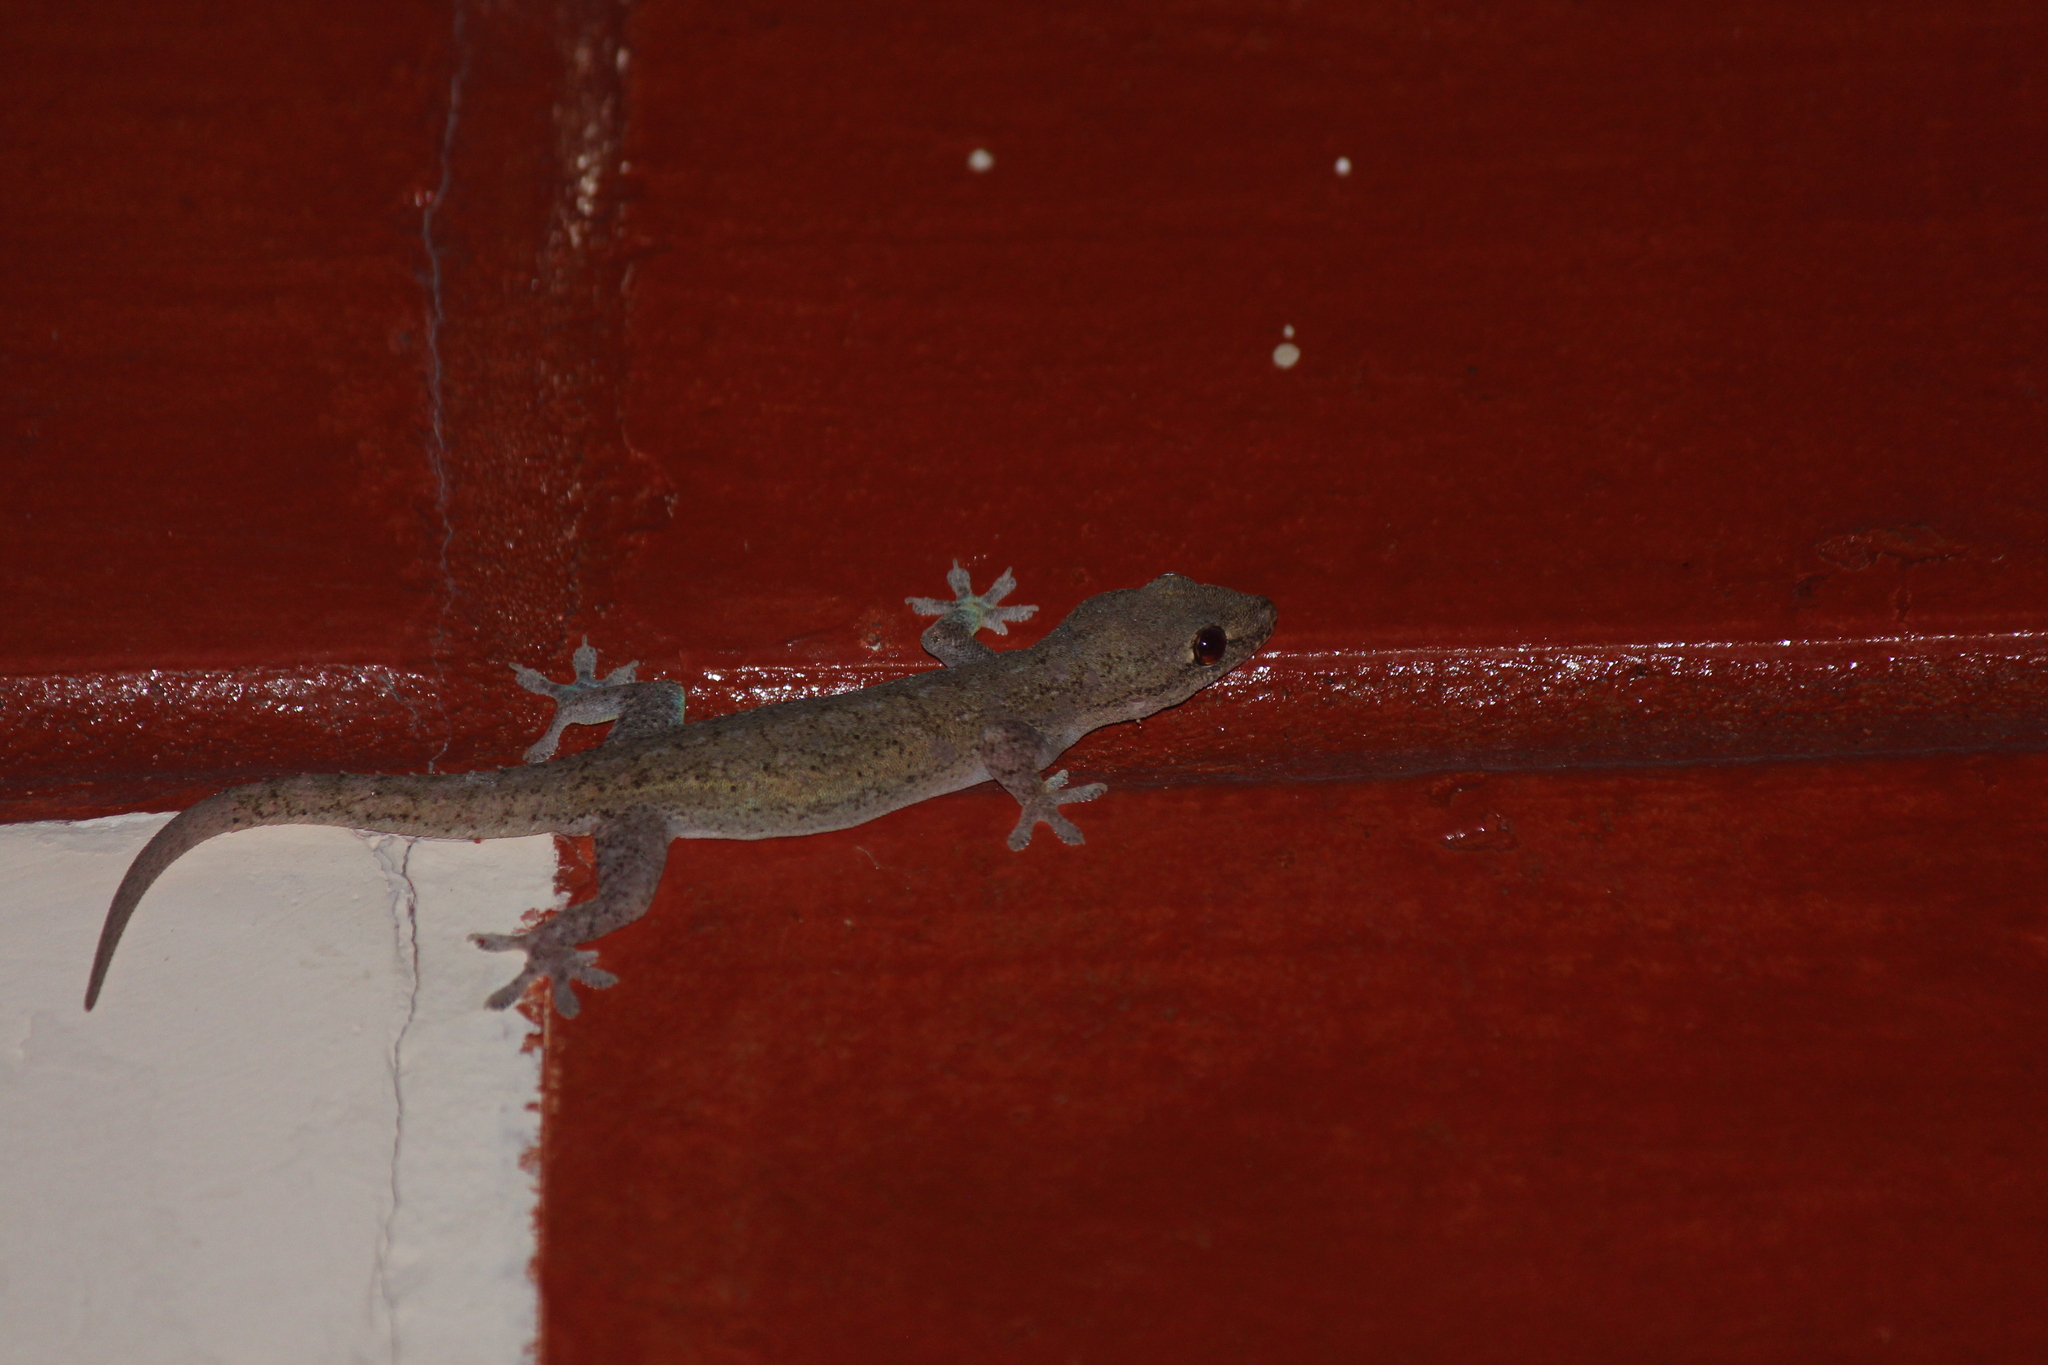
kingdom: Animalia
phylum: Chordata
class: Squamata
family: Gekkonidae
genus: Hemidactylus
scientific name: Hemidactylus frenatus
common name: Common house gecko
